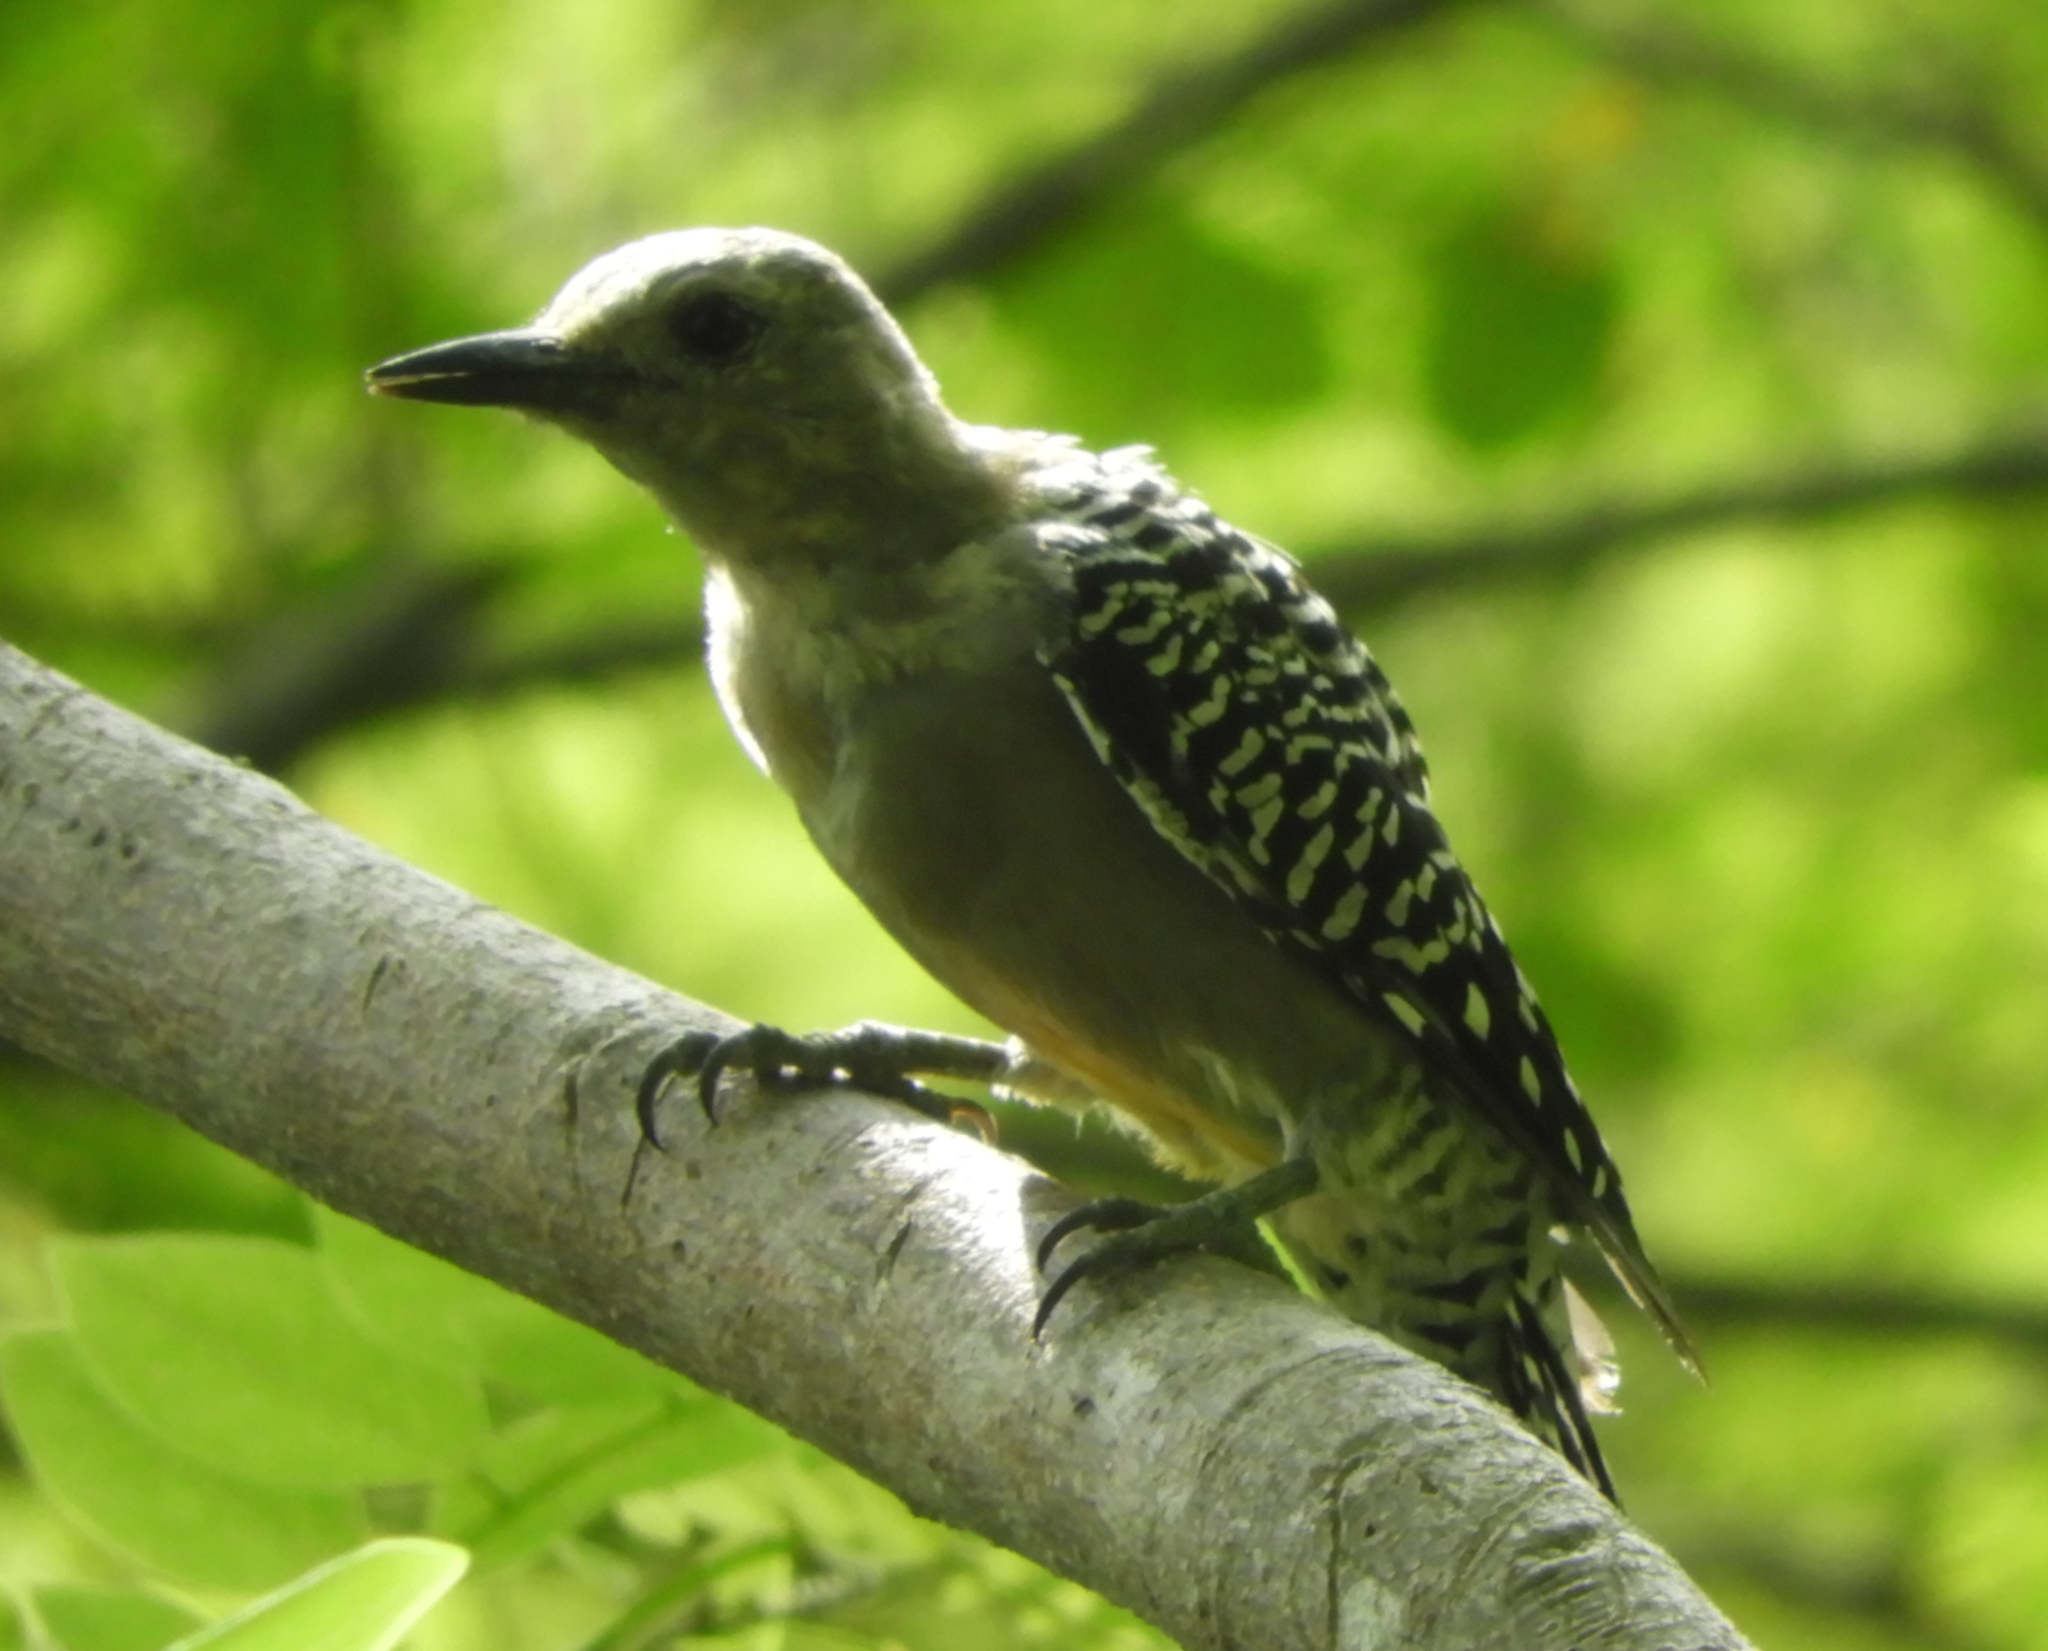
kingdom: Animalia
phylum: Chordata
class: Aves
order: Piciformes
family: Picidae
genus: Melanerpes
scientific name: Melanerpes uropygialis
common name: Gila woodpecker
